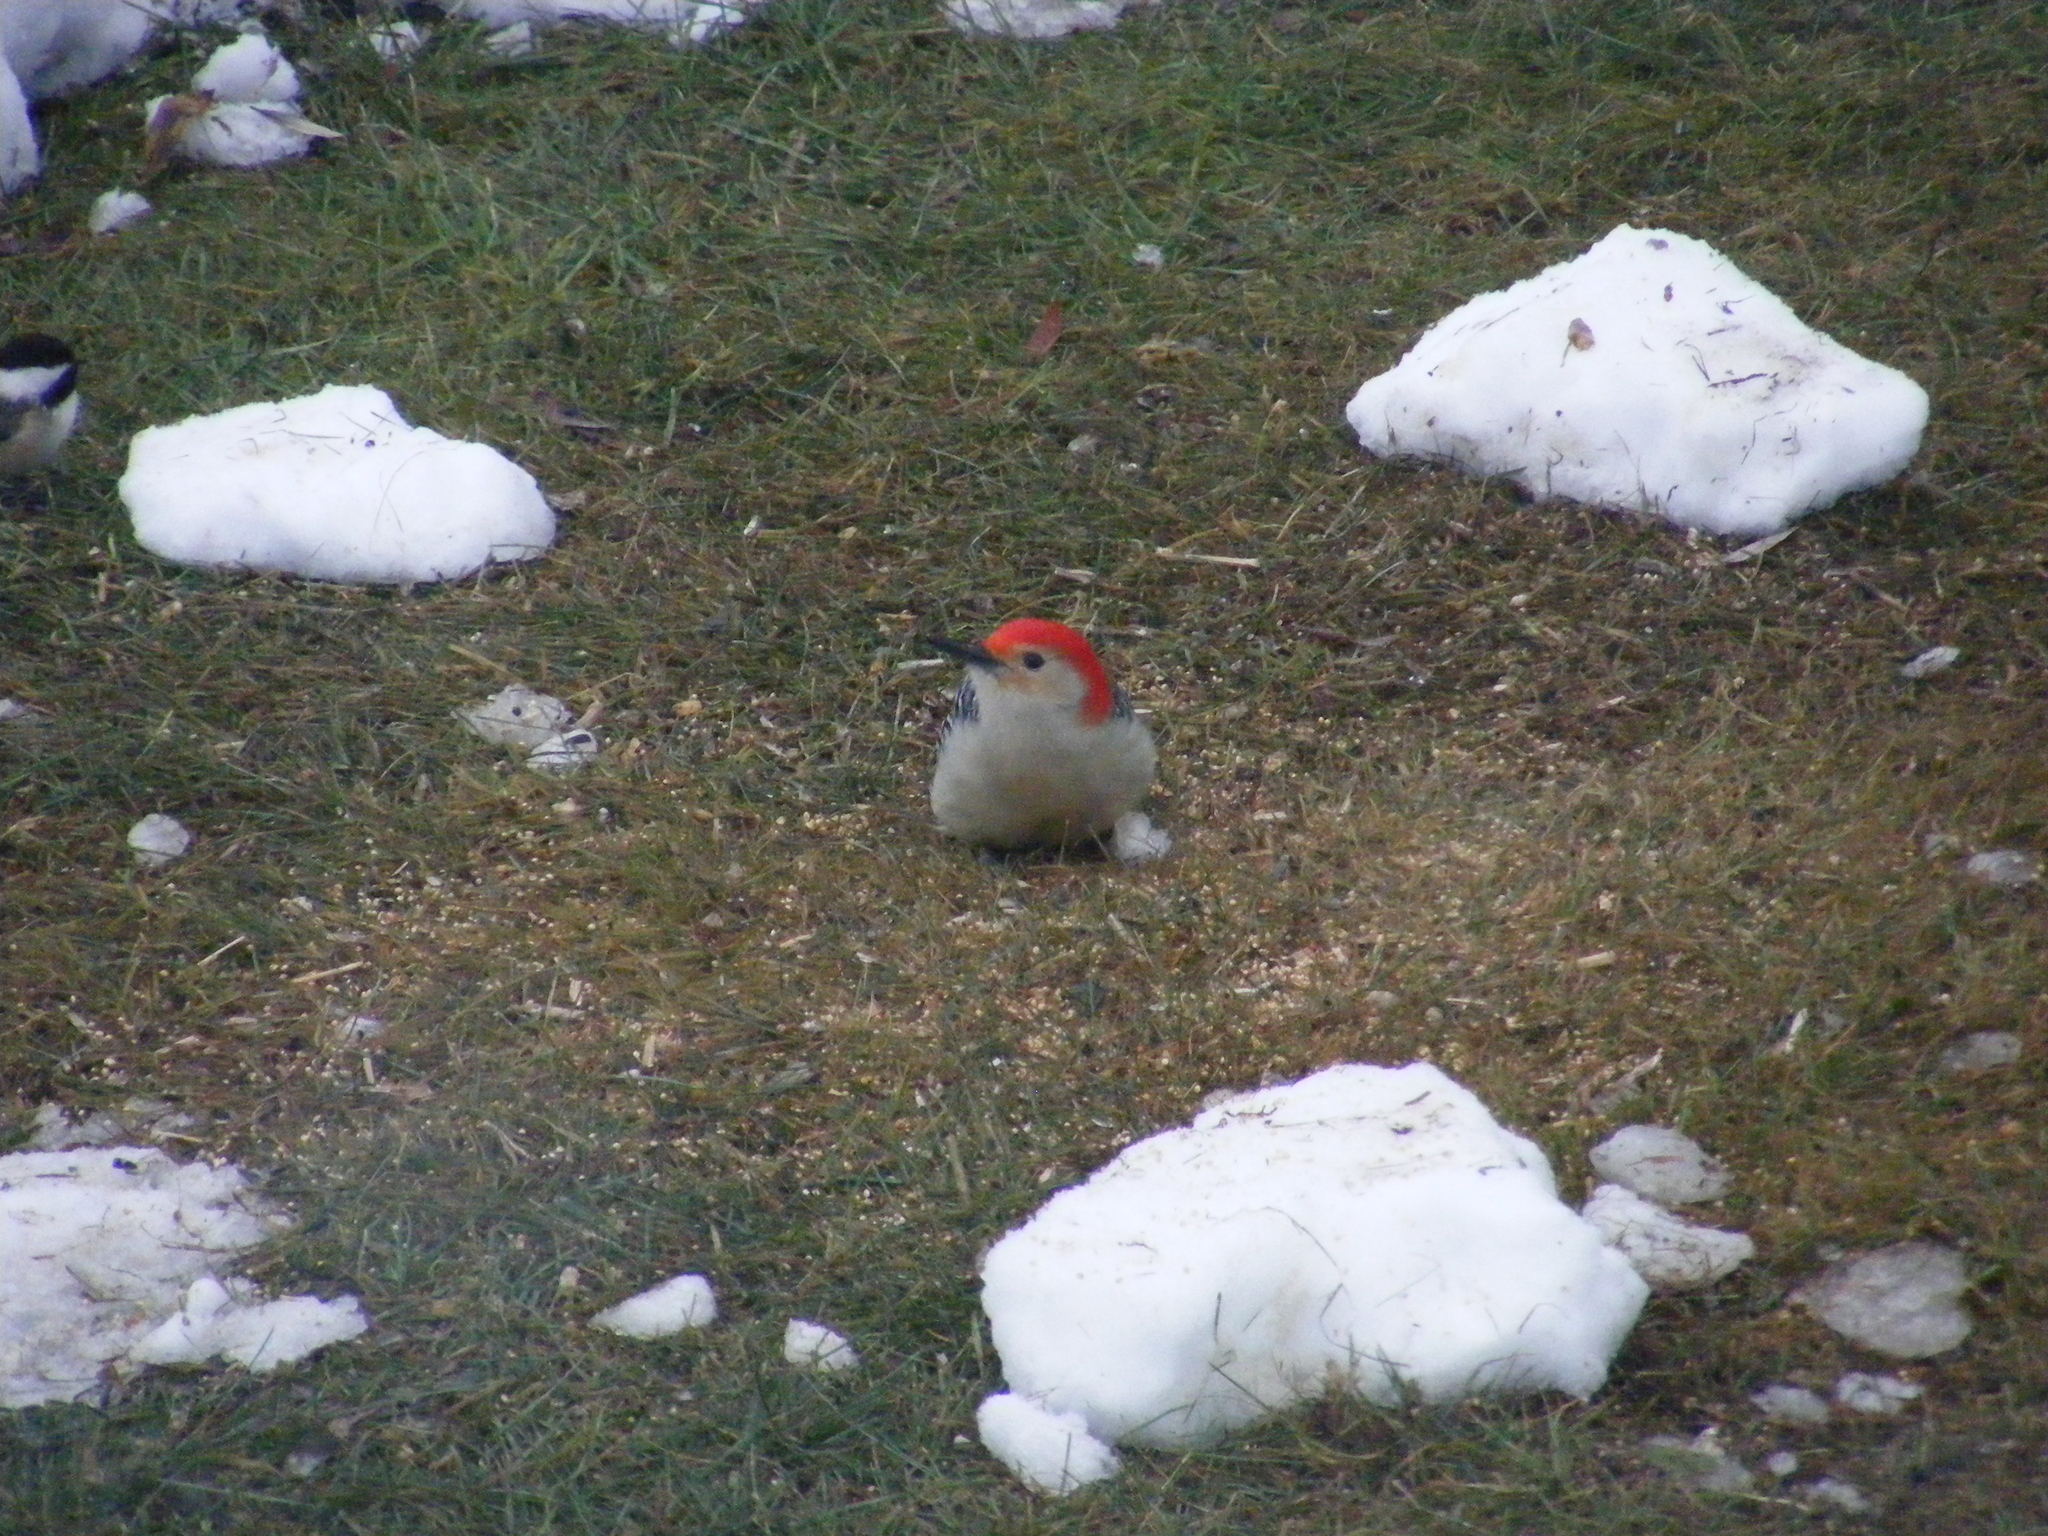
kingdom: Animalia
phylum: Chordata
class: Aves
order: Piciformes
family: Picidae
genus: Melanerpes
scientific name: Melanerpes carolinus
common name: Red-bellied woodpecker
